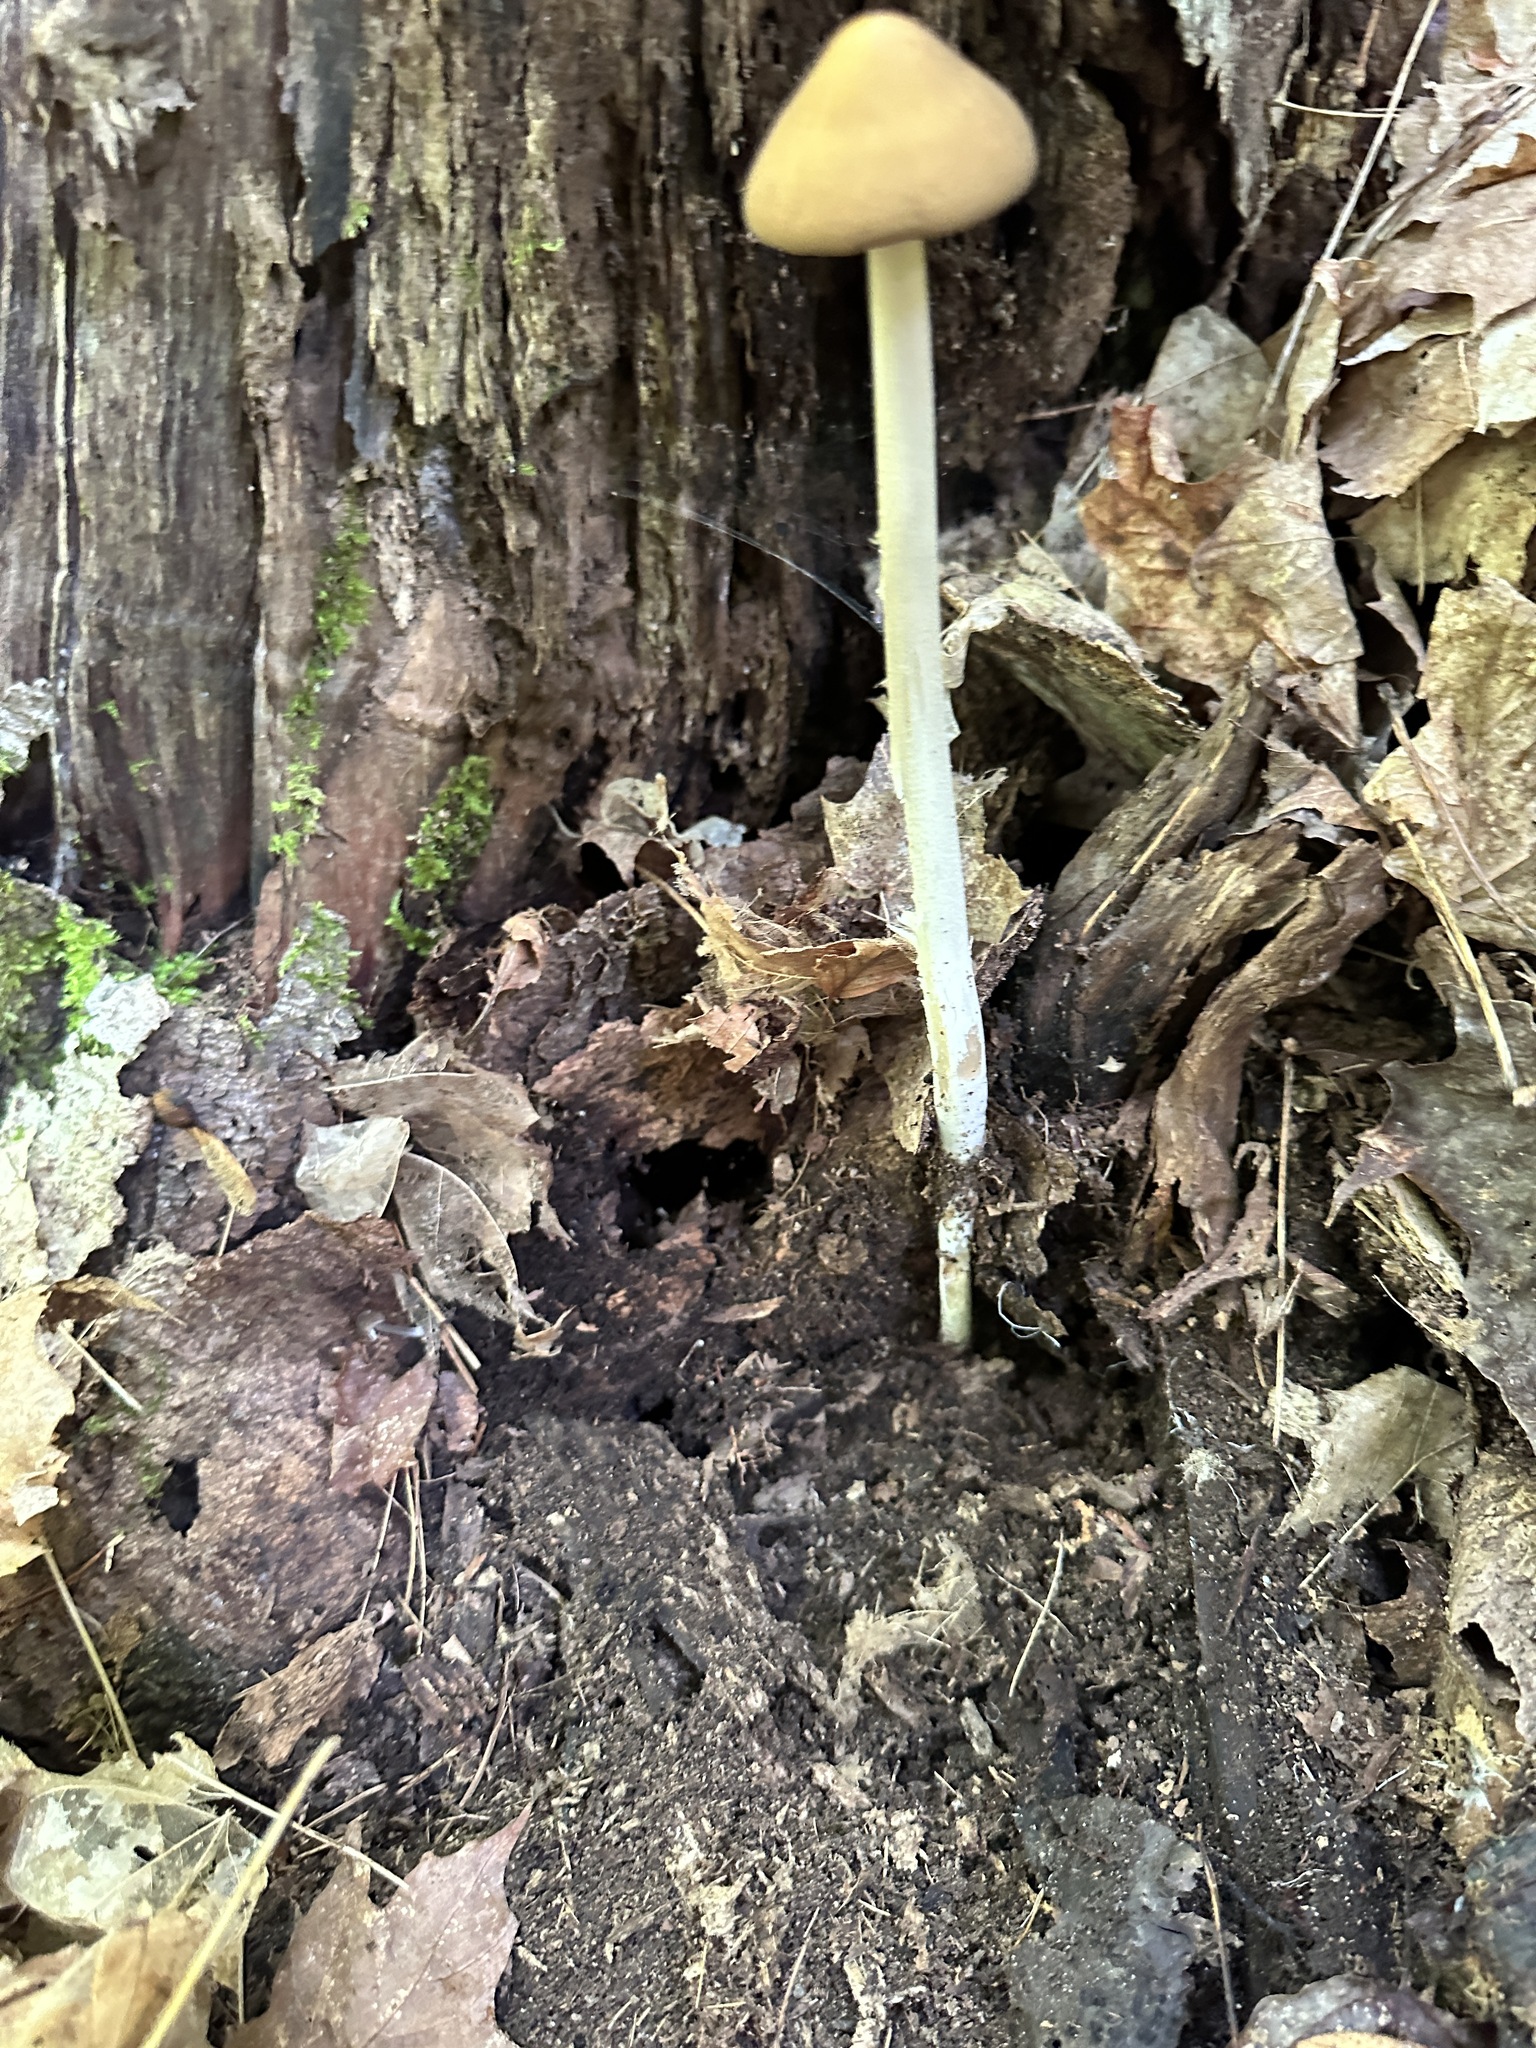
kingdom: Fungi
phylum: Basidiomycota
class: Agaricomycetes
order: Agaricales
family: Physalacriaceae
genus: Hymenopellis
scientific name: Hymenopellis furfuracea
